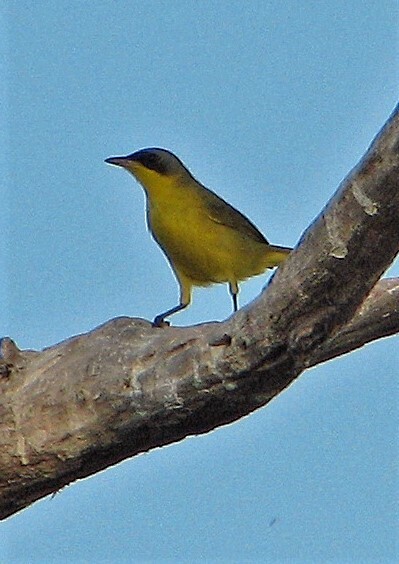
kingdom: Animalia
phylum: Chordata
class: Aves
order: Passeriformes
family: Parulidae
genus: Geothlypis
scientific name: Geothlypis velata
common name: Southern yellowthroat
